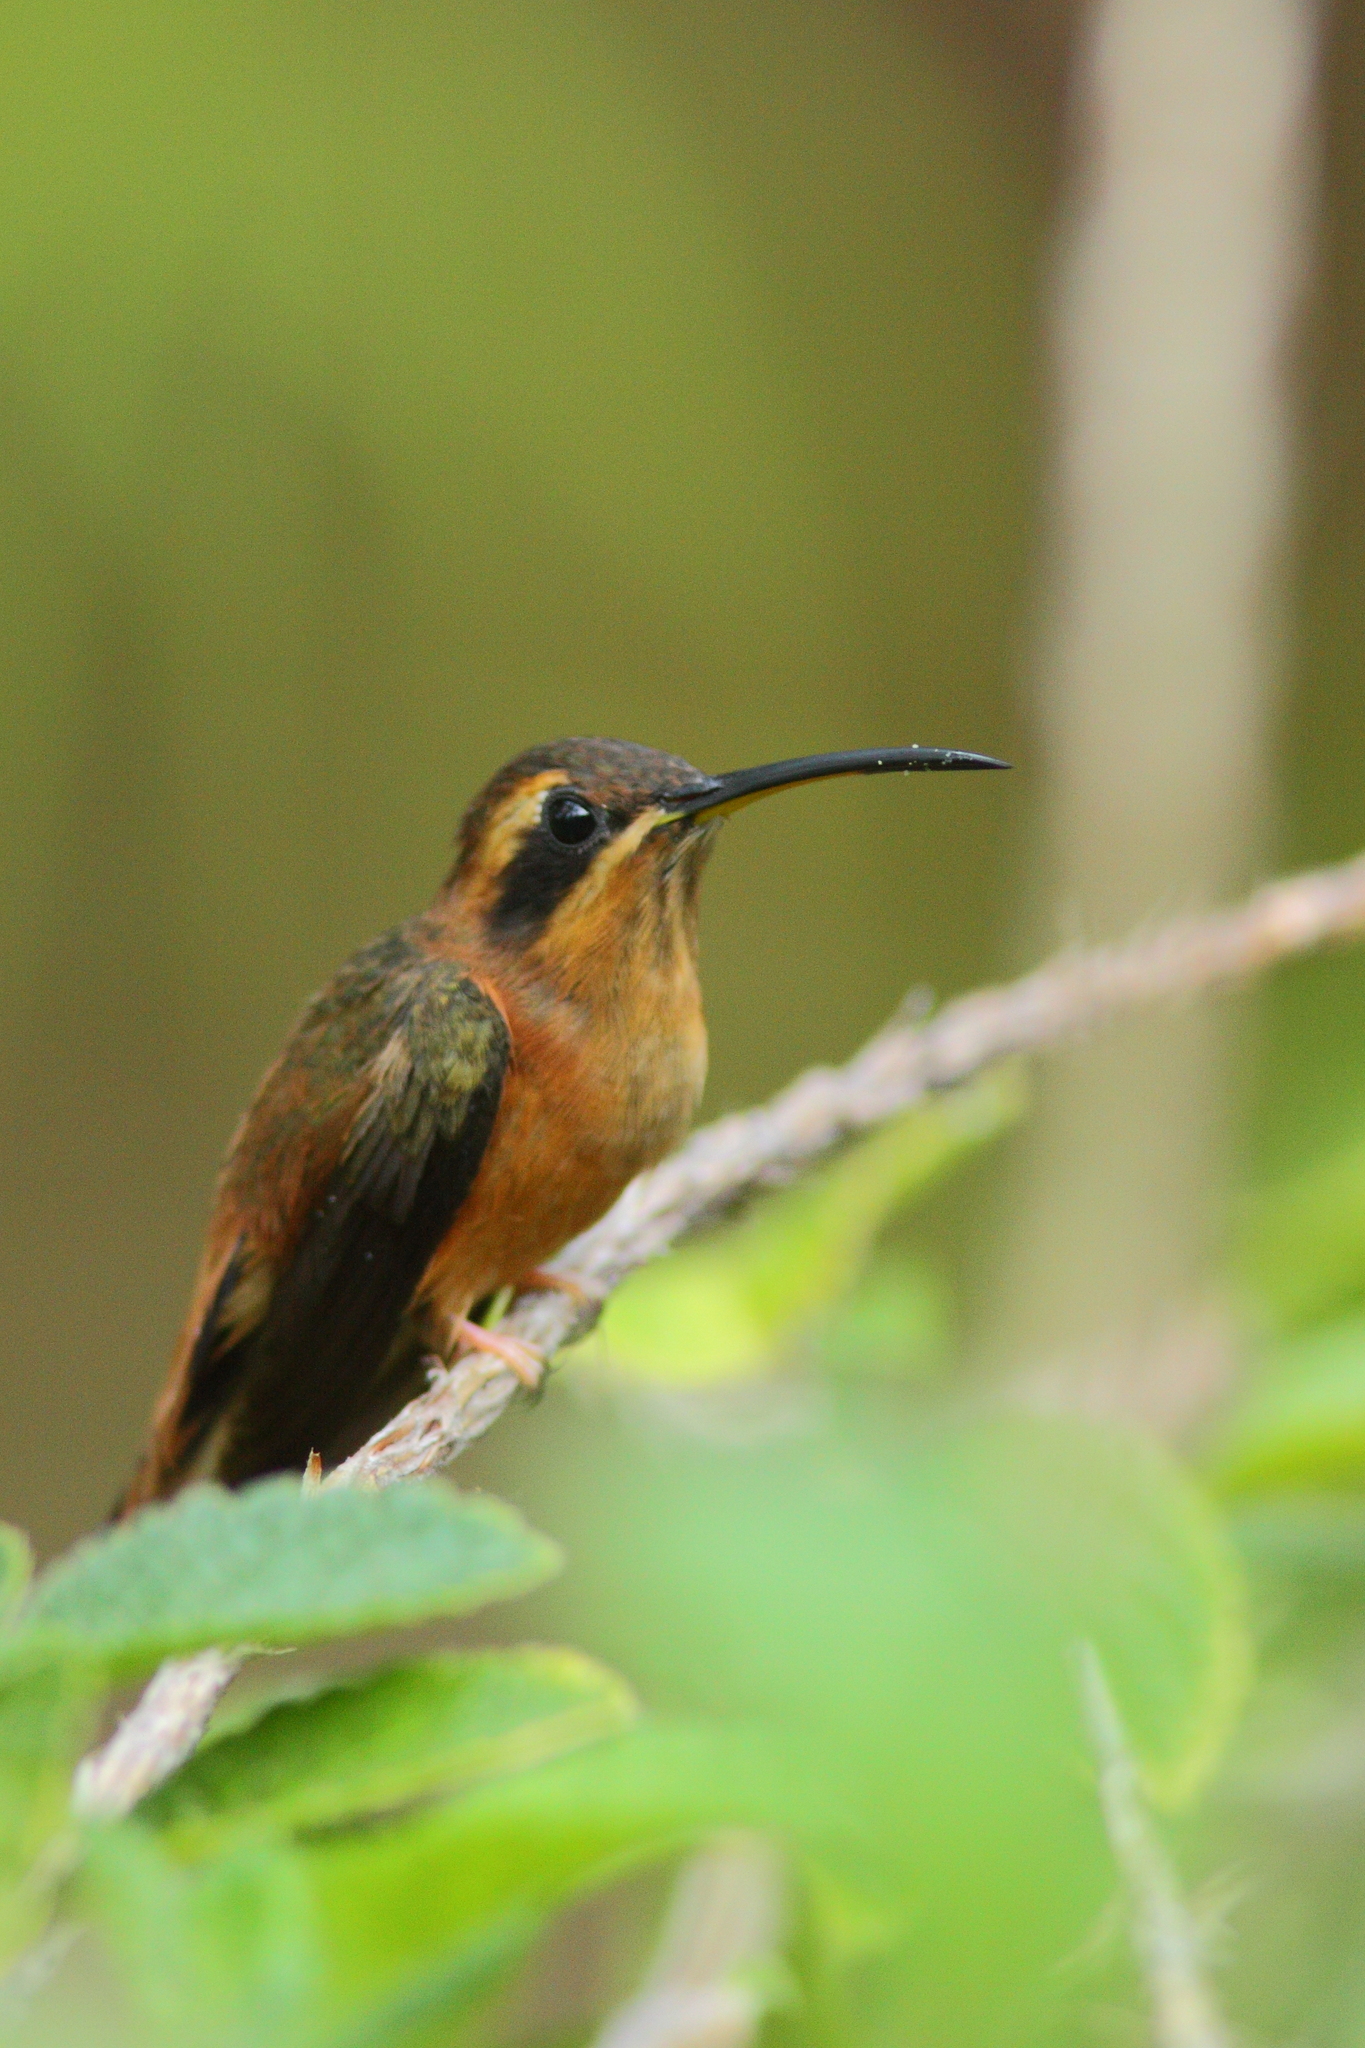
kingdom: Animalia
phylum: Chordata
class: Aves
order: Apodiformes
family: Trochilidae
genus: Phaethornis
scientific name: Phaethornis striigularis
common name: Stripe-throated hermit
